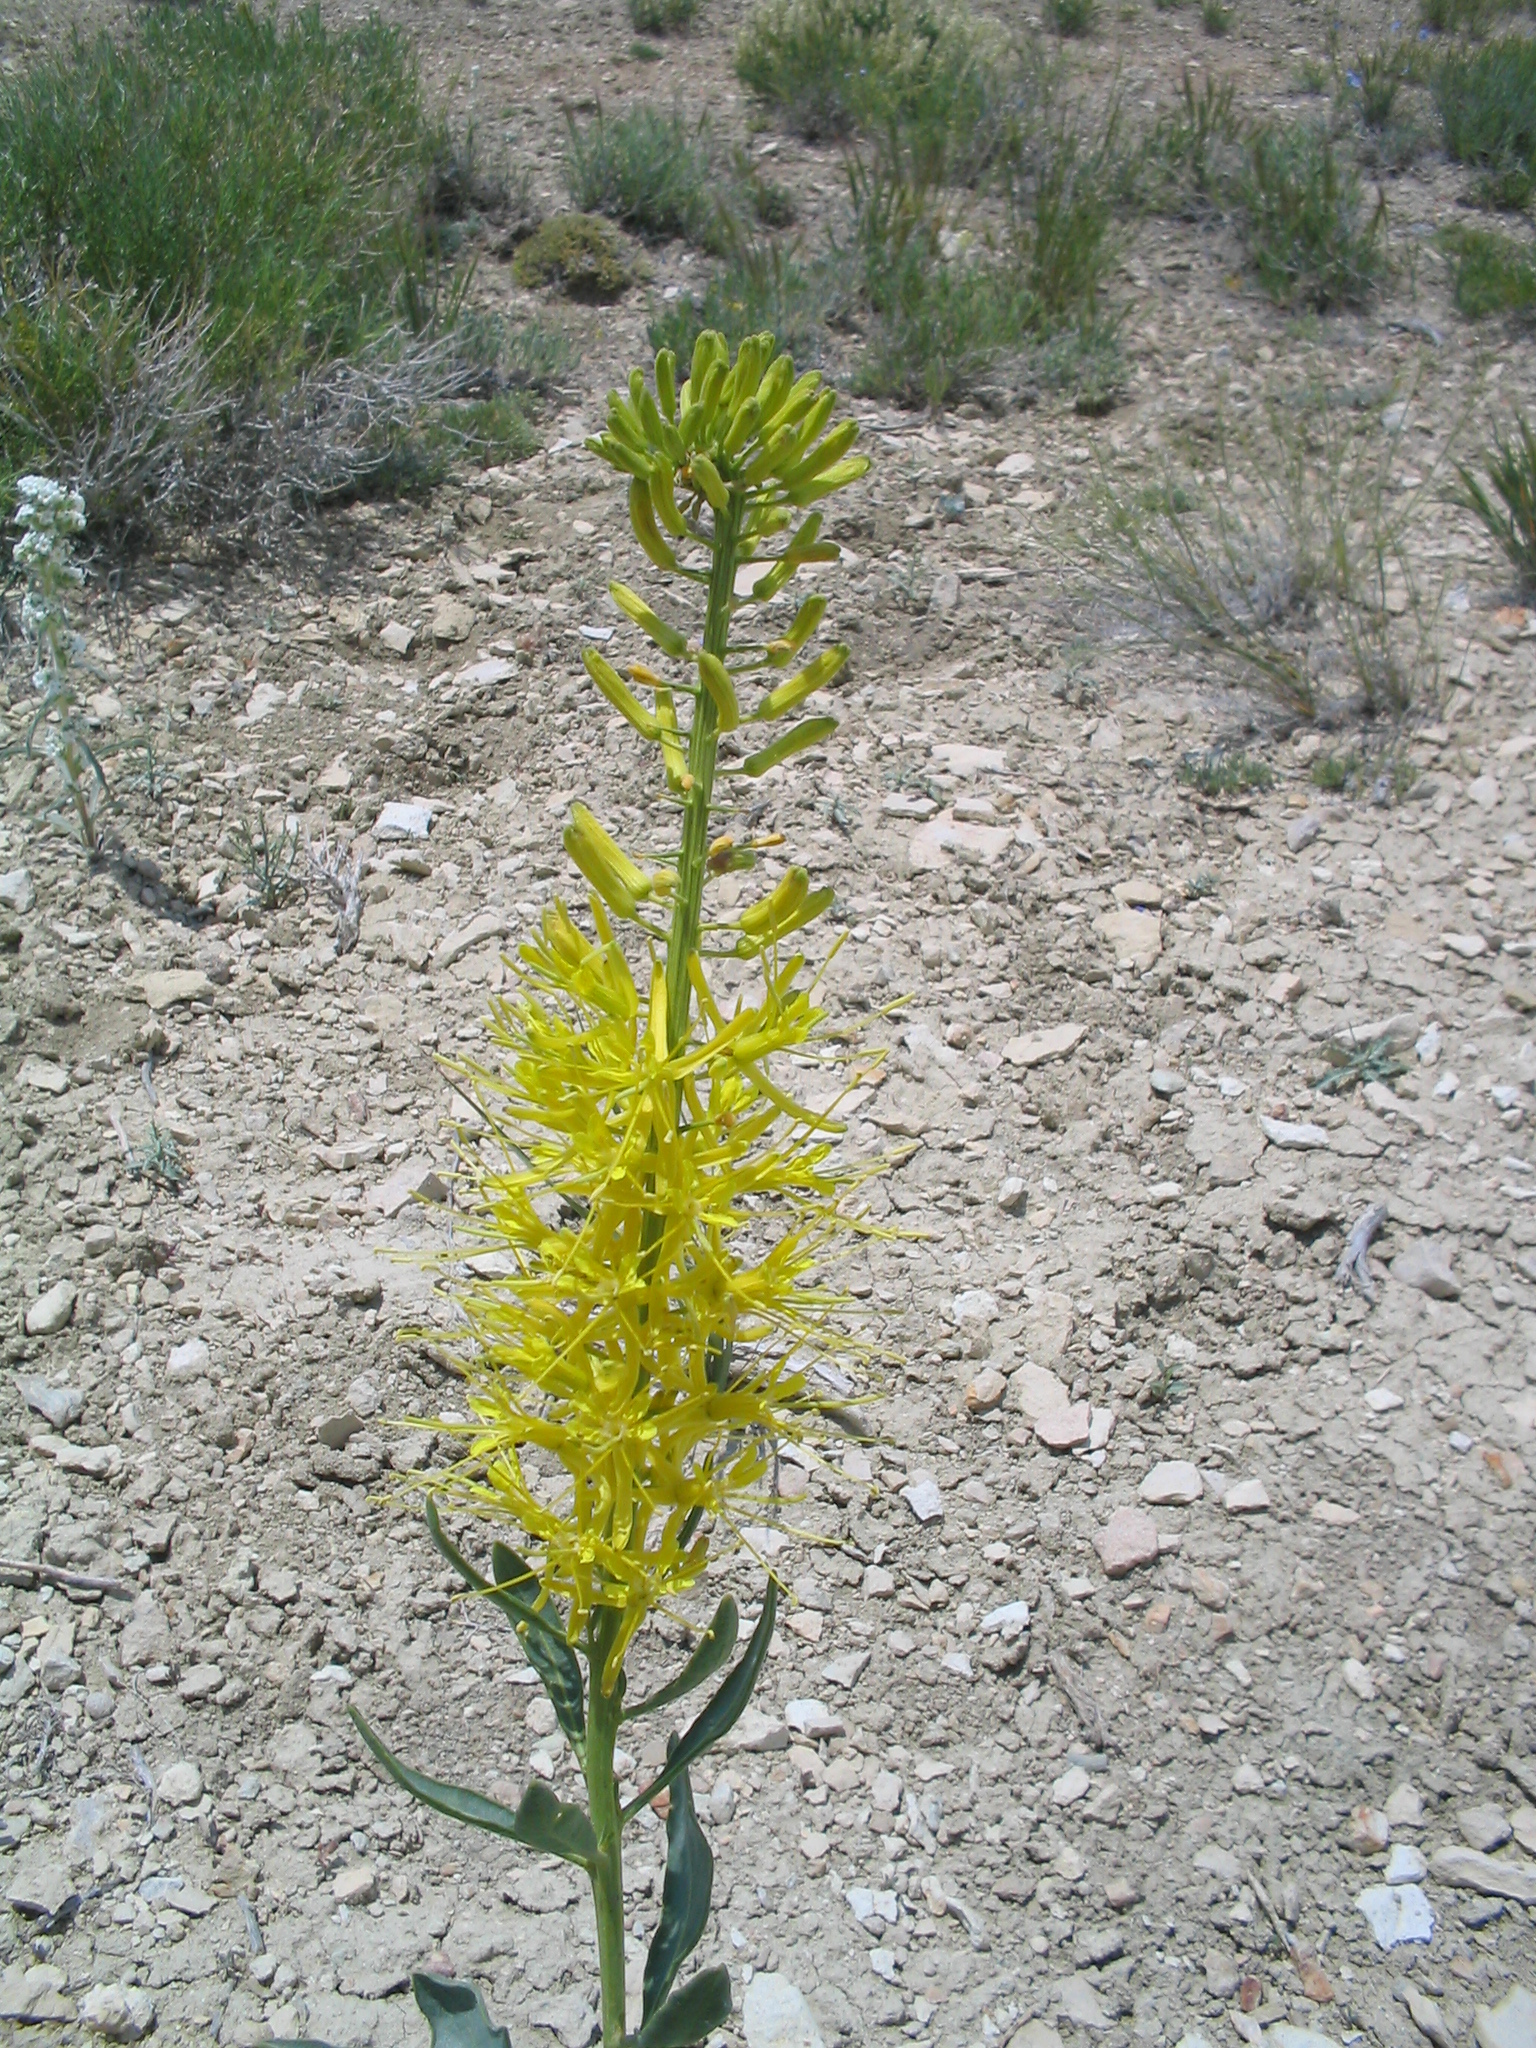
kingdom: Plantae
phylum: Tracheophyta
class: Magnoliopsida
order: Brassicales
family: Brassicaceae
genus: Stanleya
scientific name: Stanleya pinnata
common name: Prince's-plume
